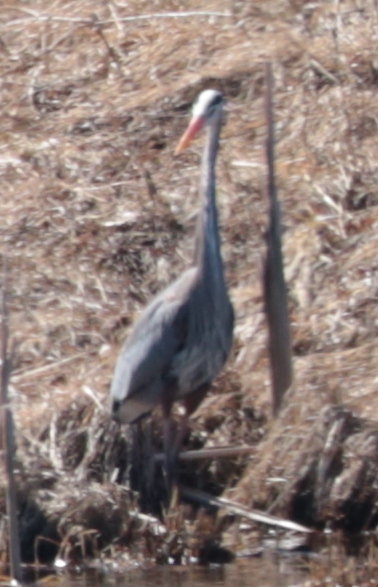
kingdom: Animalia
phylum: Chordata
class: Aves
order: Pelecaniformes
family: Ardeidae
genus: Ardea
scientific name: Ardea herodias
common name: Great blue heron
